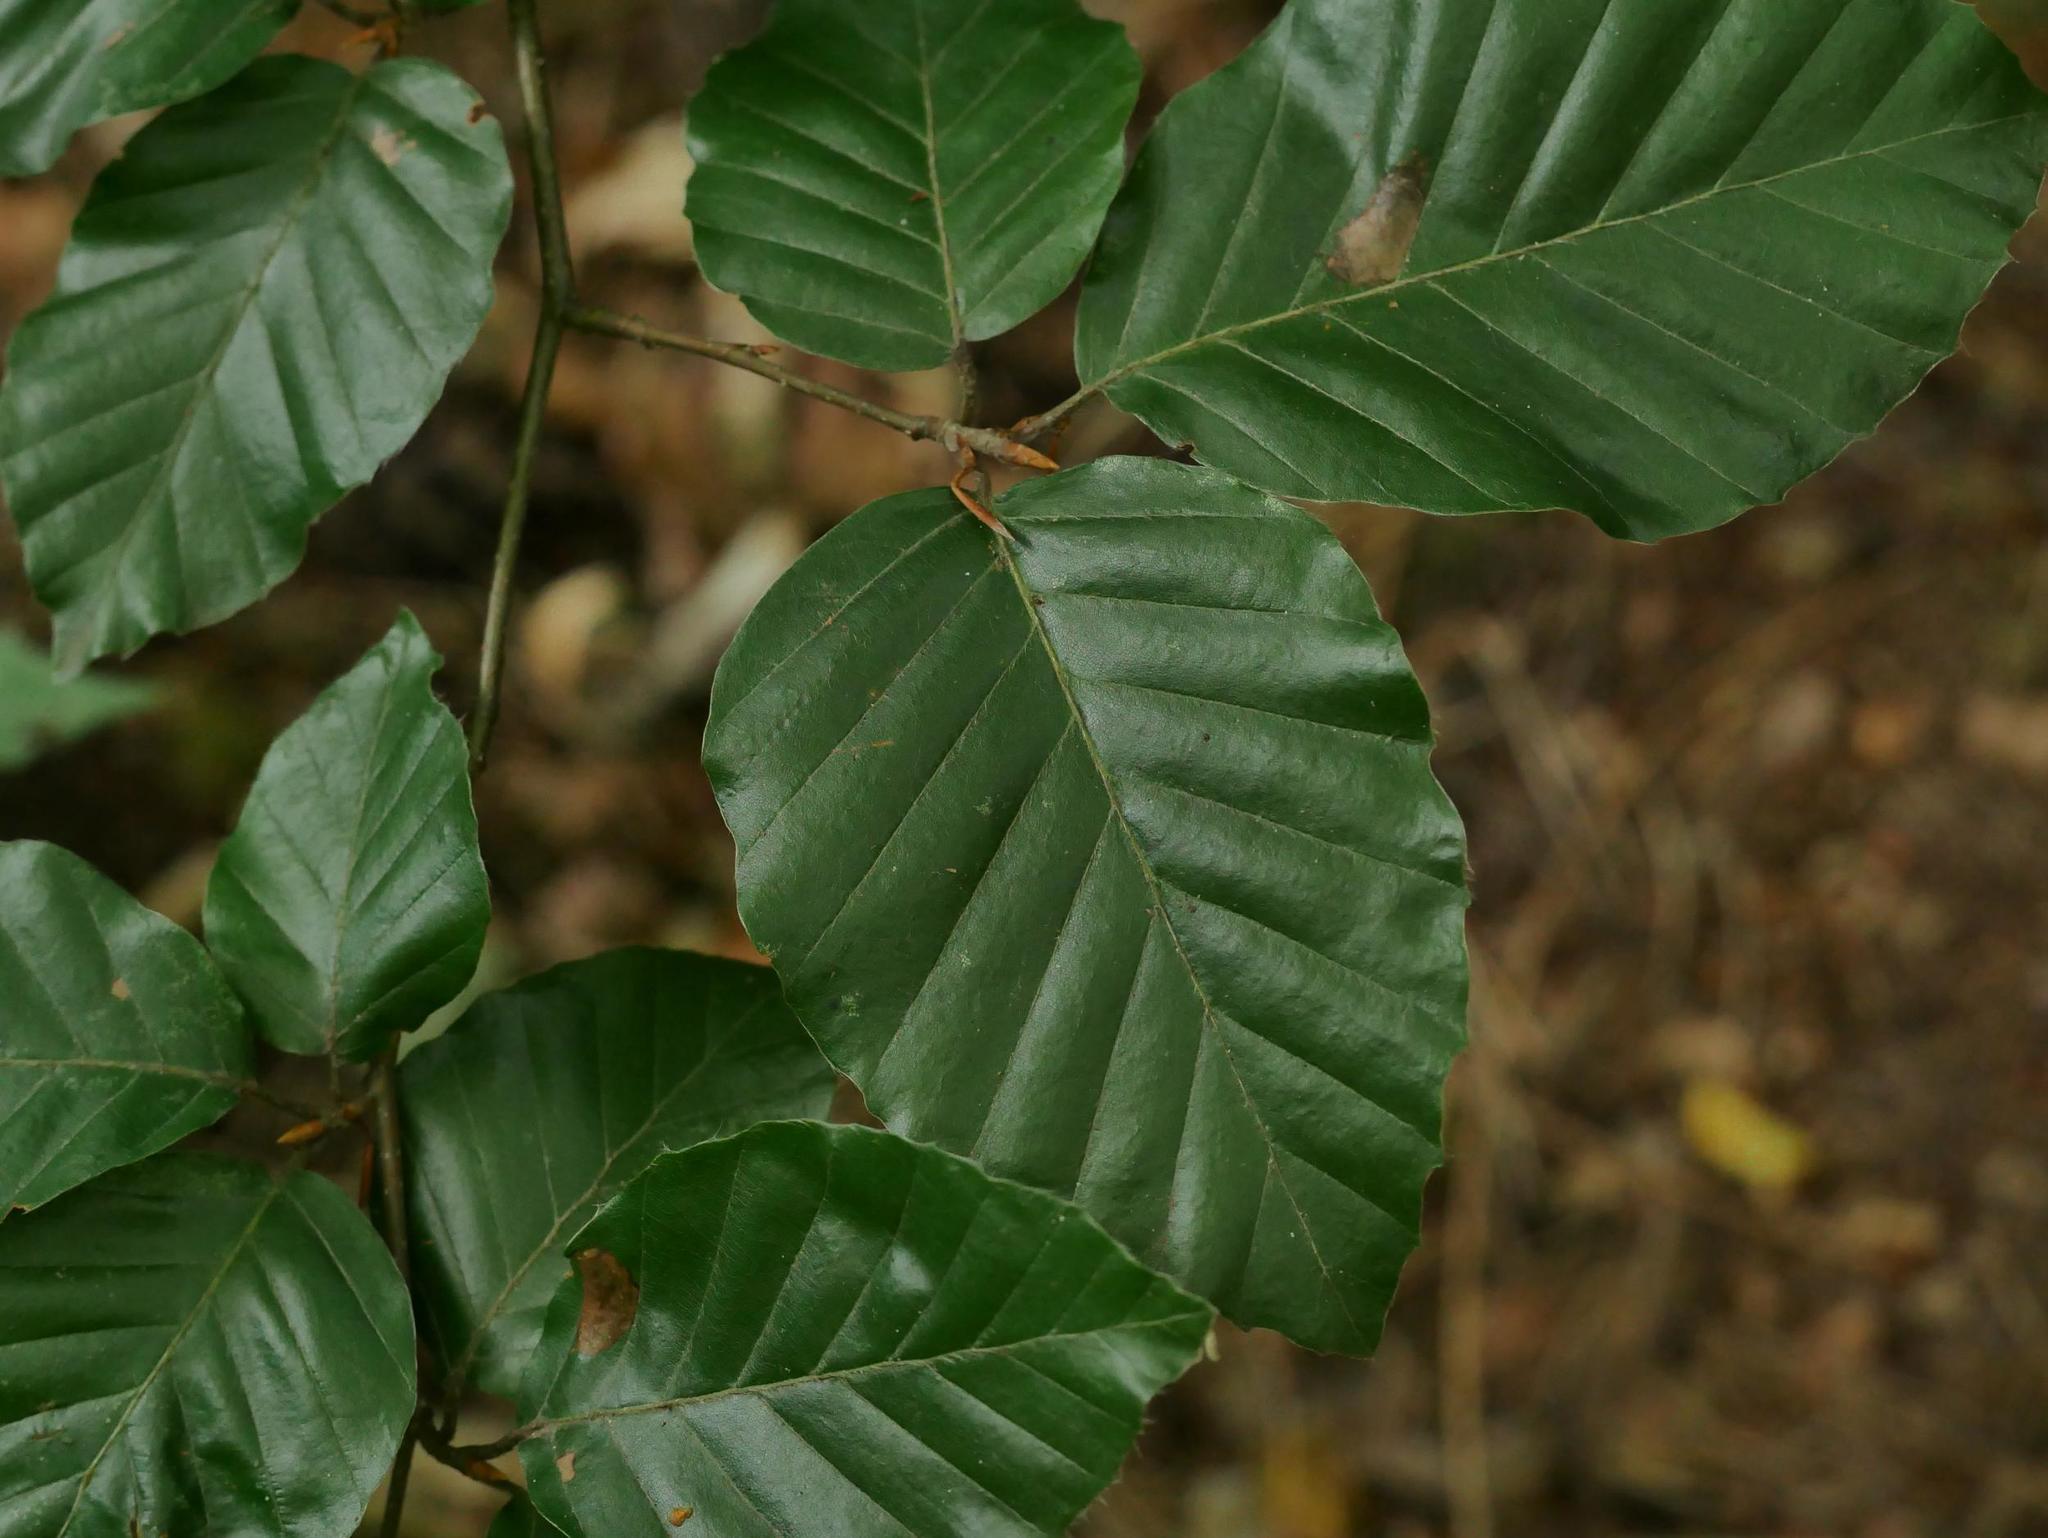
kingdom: Plantae
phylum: Tracheophyta
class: Magnoliopsida
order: Fagales
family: Fagaceae
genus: Fagus
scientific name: Fagus sylvatica
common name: Beech
